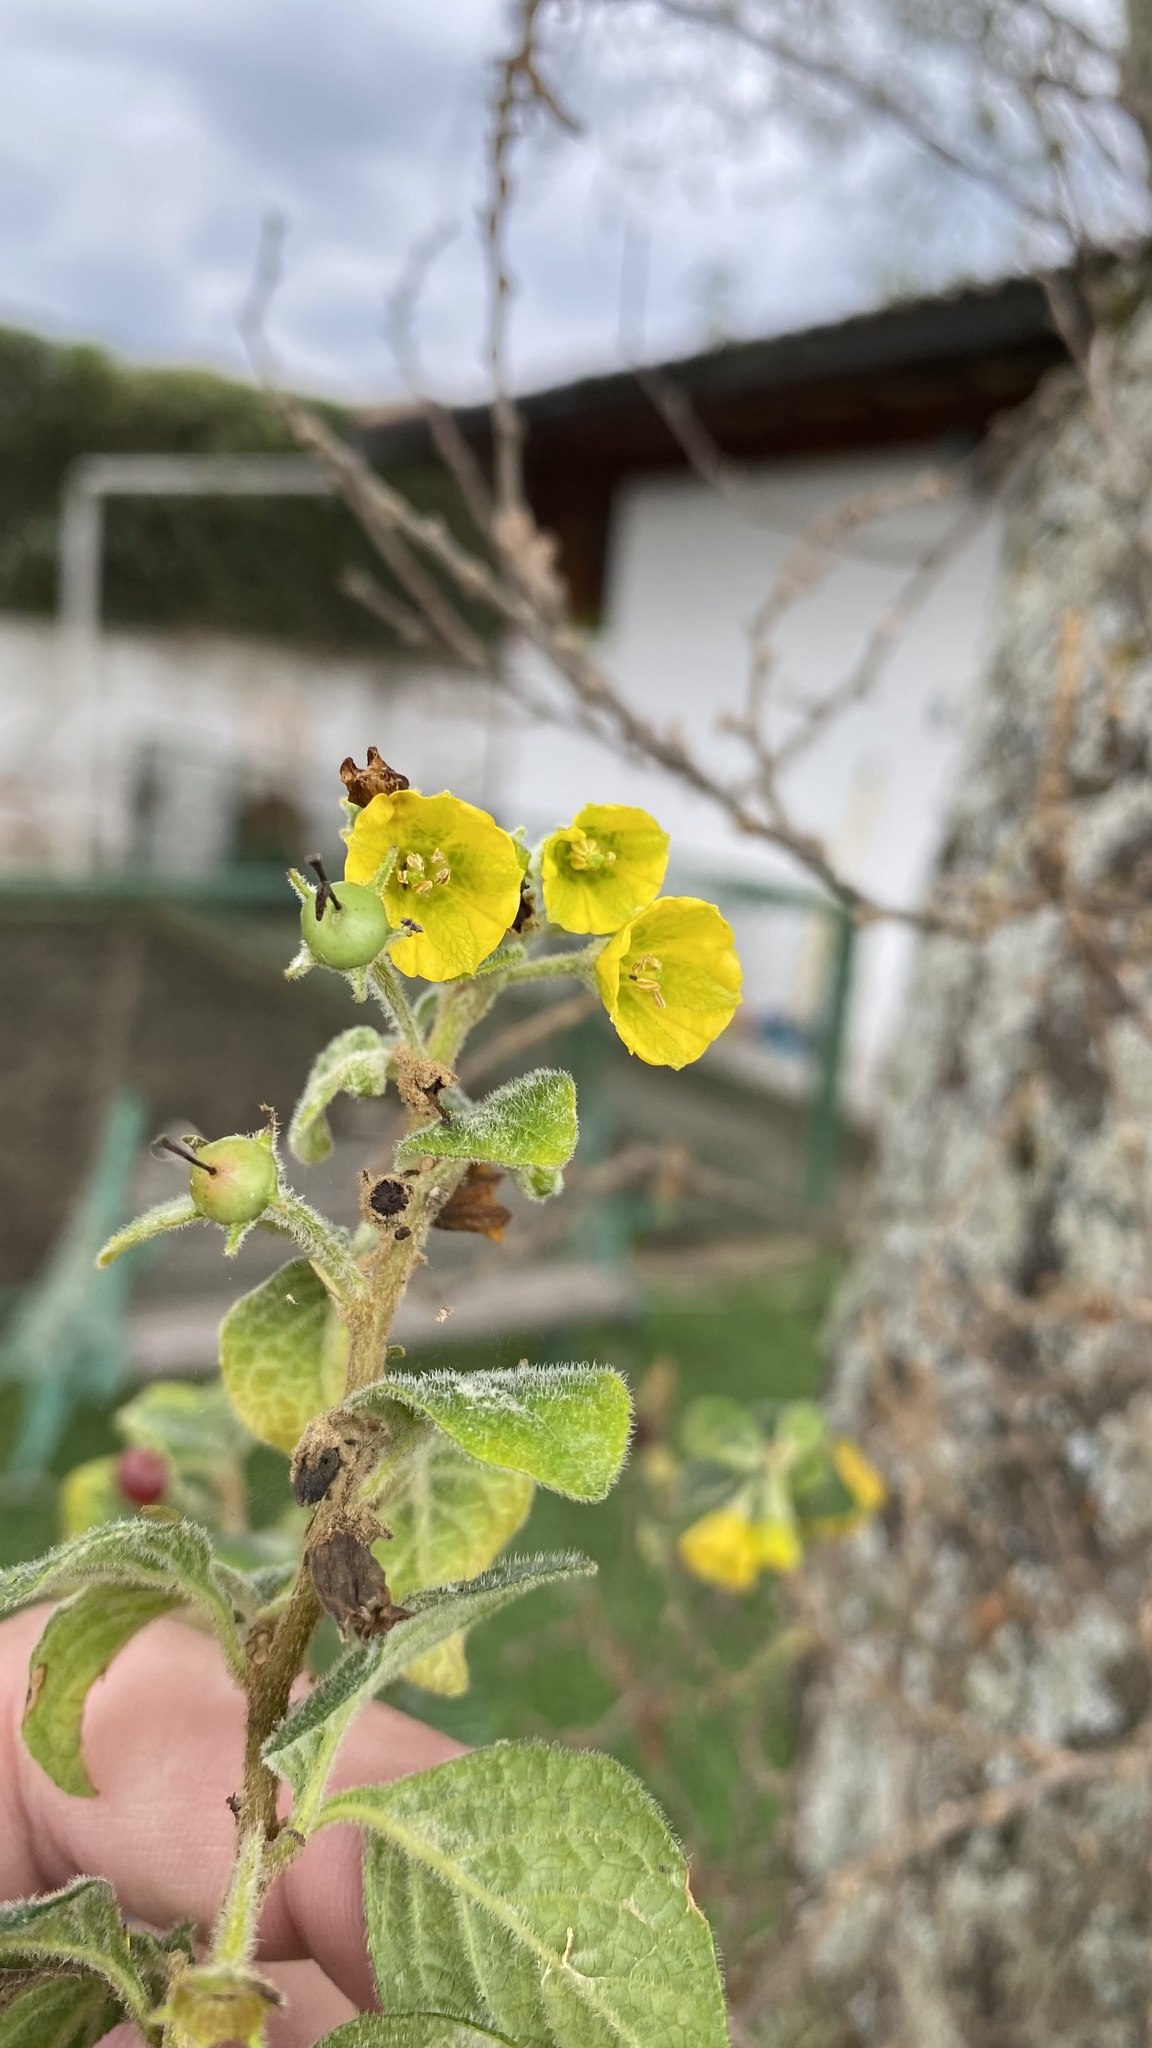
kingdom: Plantae
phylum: Tracheophyta
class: Magnoliopsida
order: Solanales
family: Solanaceae
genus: Capsicum
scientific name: Capsicum rhomboideum
